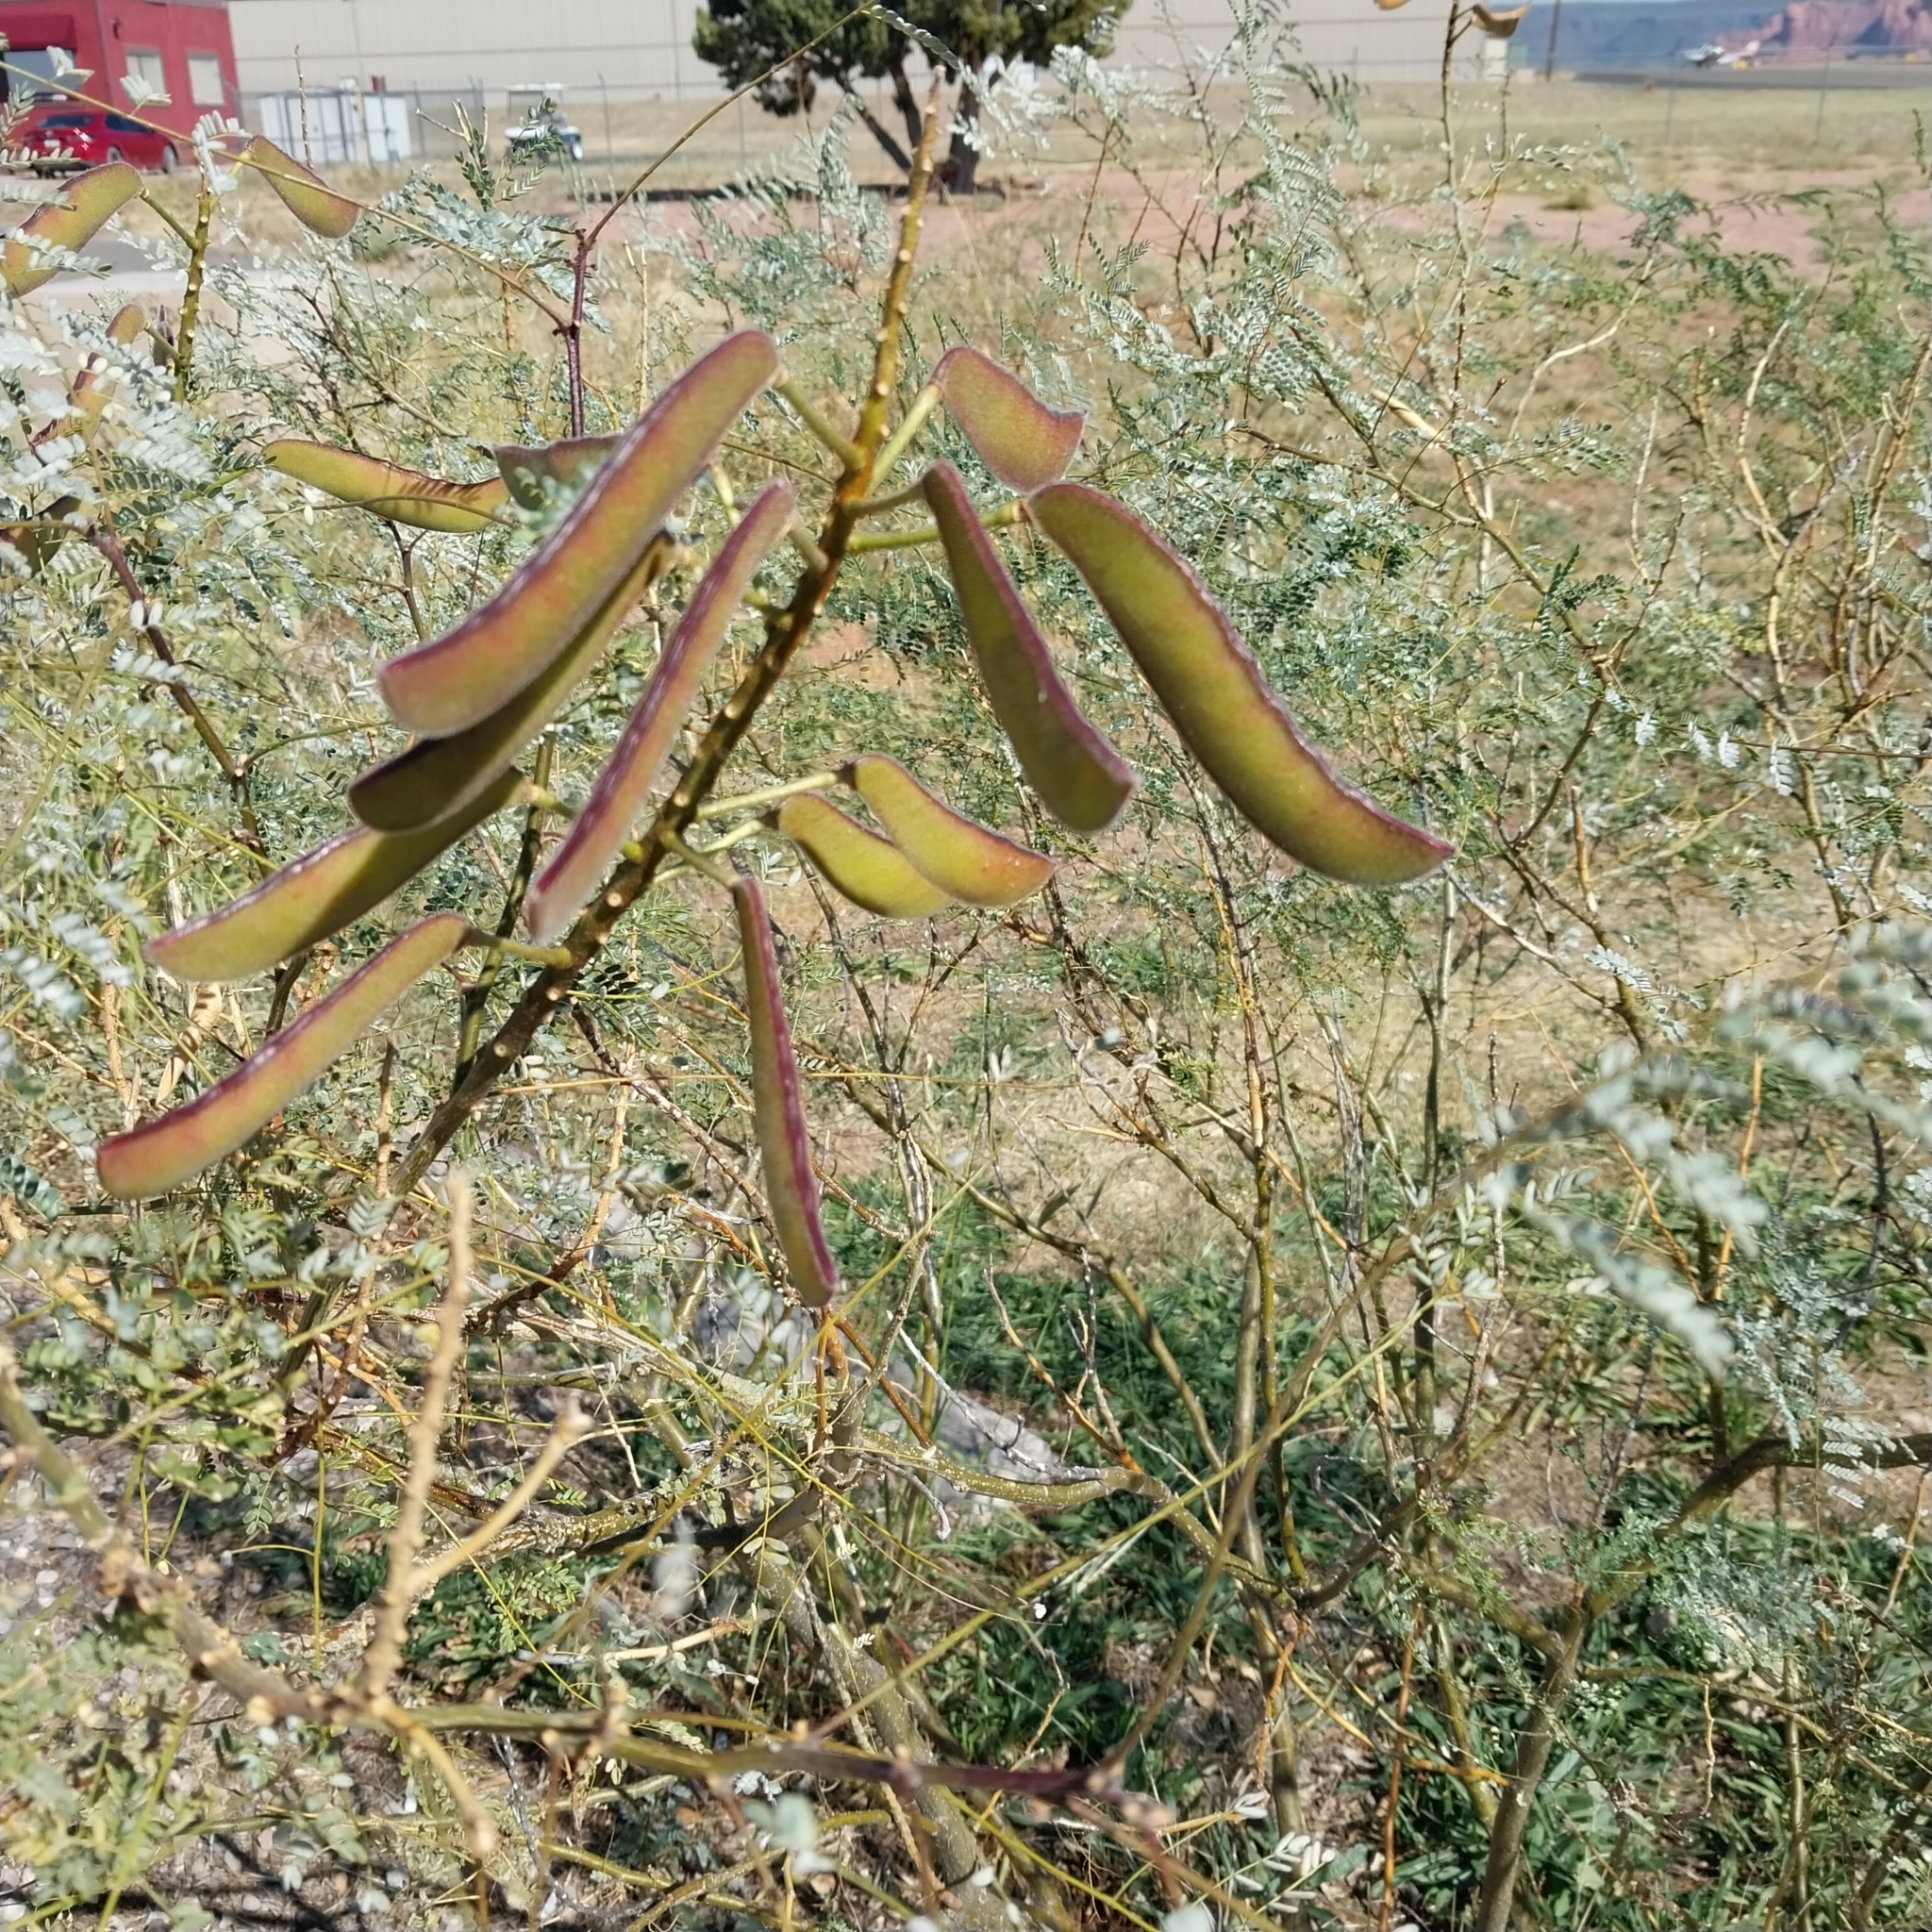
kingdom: Plantae
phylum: Tracheophyta
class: Magnoliopsida
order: Fabales
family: Fabaceae
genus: Erythrostemon
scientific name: Erythrostemon gilliesii
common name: Bird-of-paradise shrub
